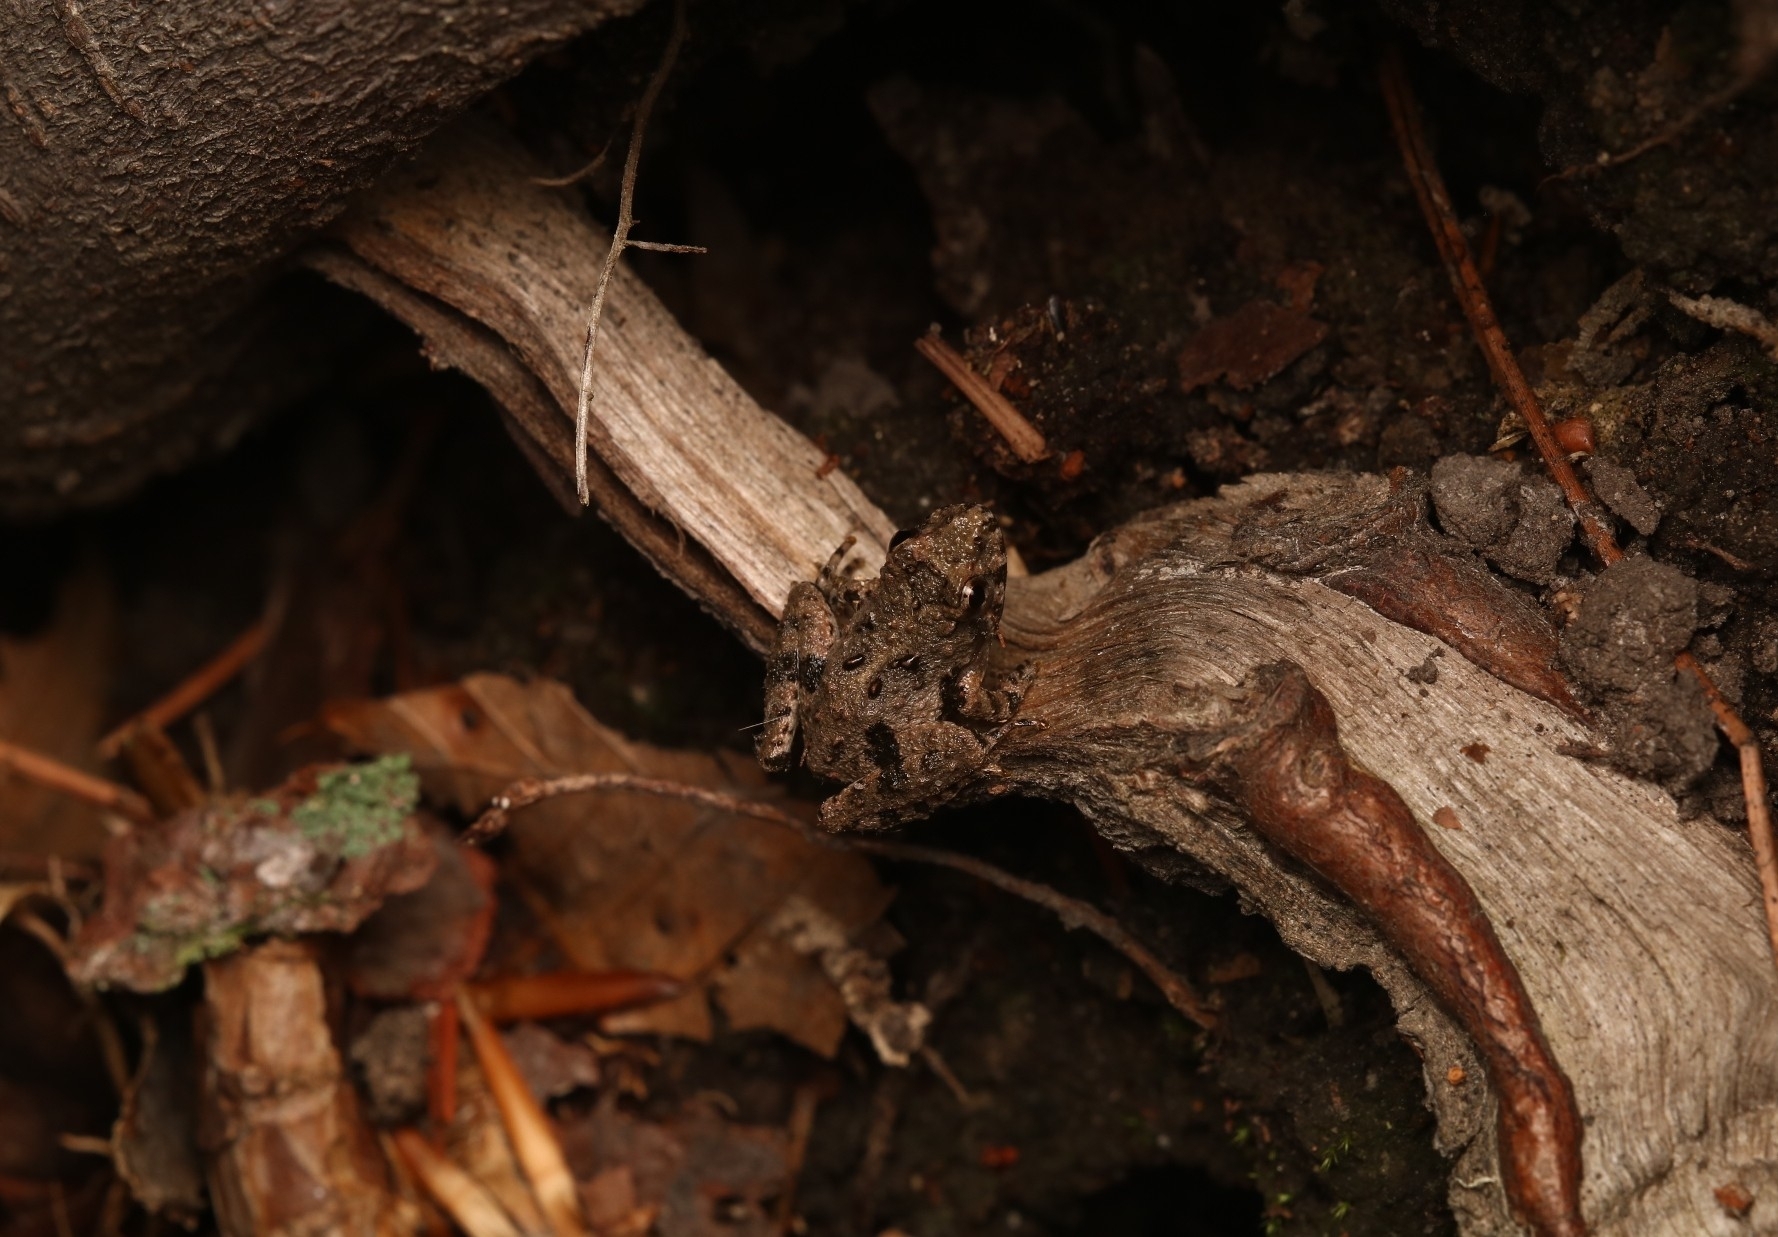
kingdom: Animalia
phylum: Chordata
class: Amphibia
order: Anura
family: Hylidae
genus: Acris
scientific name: Acris crepitans
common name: Northern cricket frog
